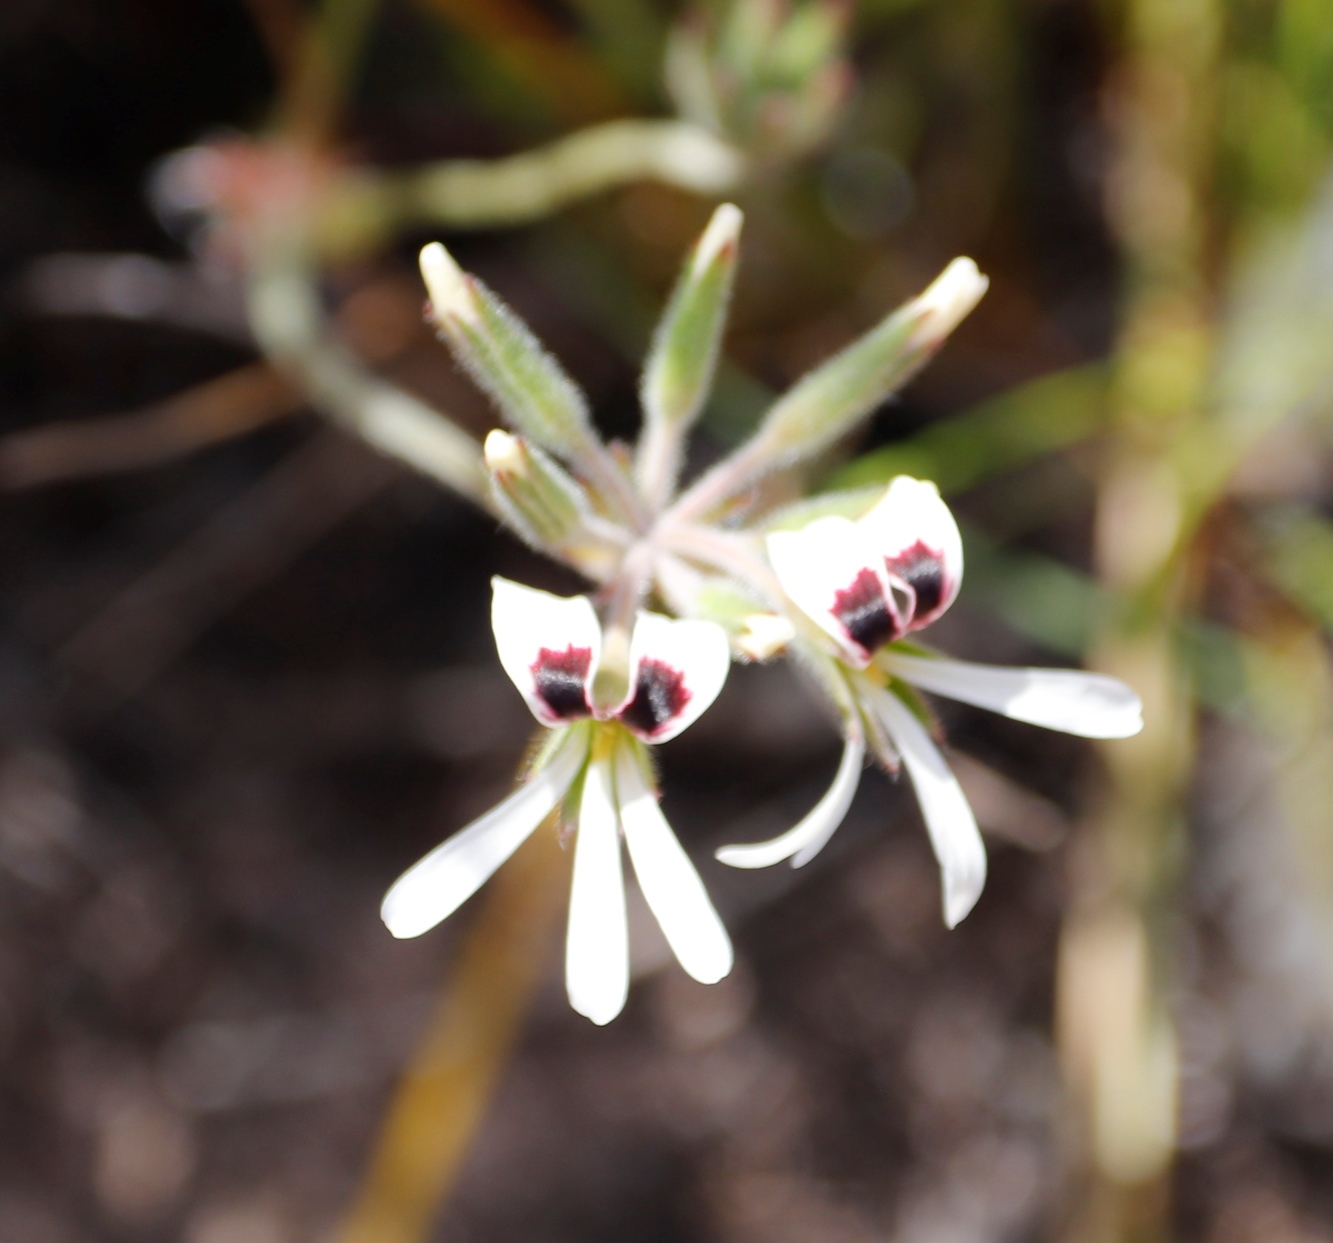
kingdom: Plantae
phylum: Tracheophyta
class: Magnoliopsida
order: Geraniales
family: Geraniaceae
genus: Pelargonium
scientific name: Pelargonium psammophilum
